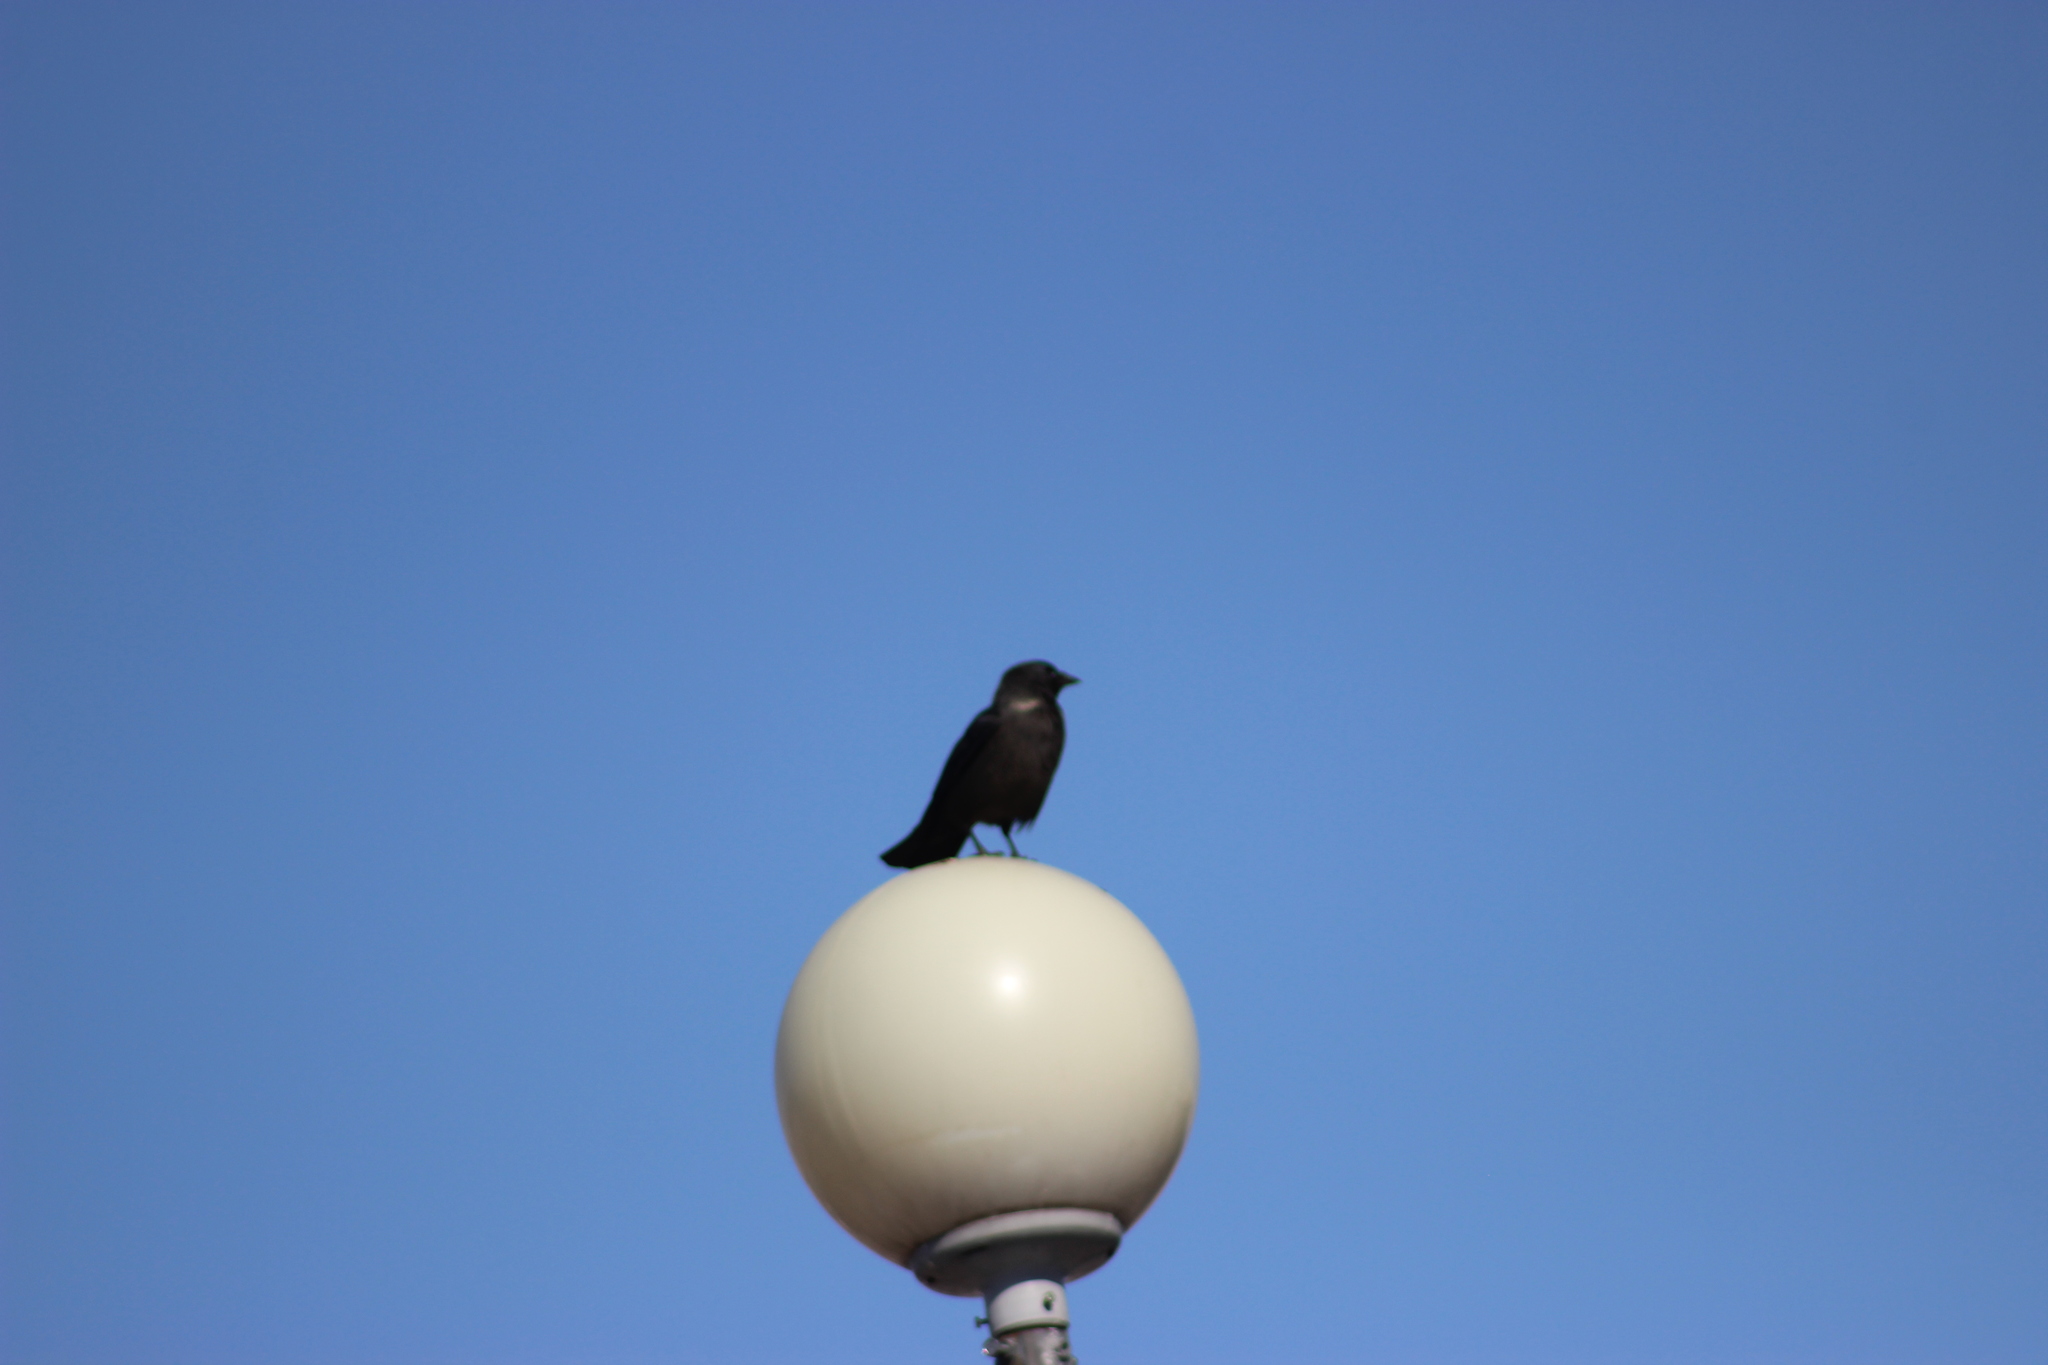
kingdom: Animalia
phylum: Chordata
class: Aves
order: Passeriformes
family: Corvidae
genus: Coloeus
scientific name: Coloeus monedula
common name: Western jackdaw
